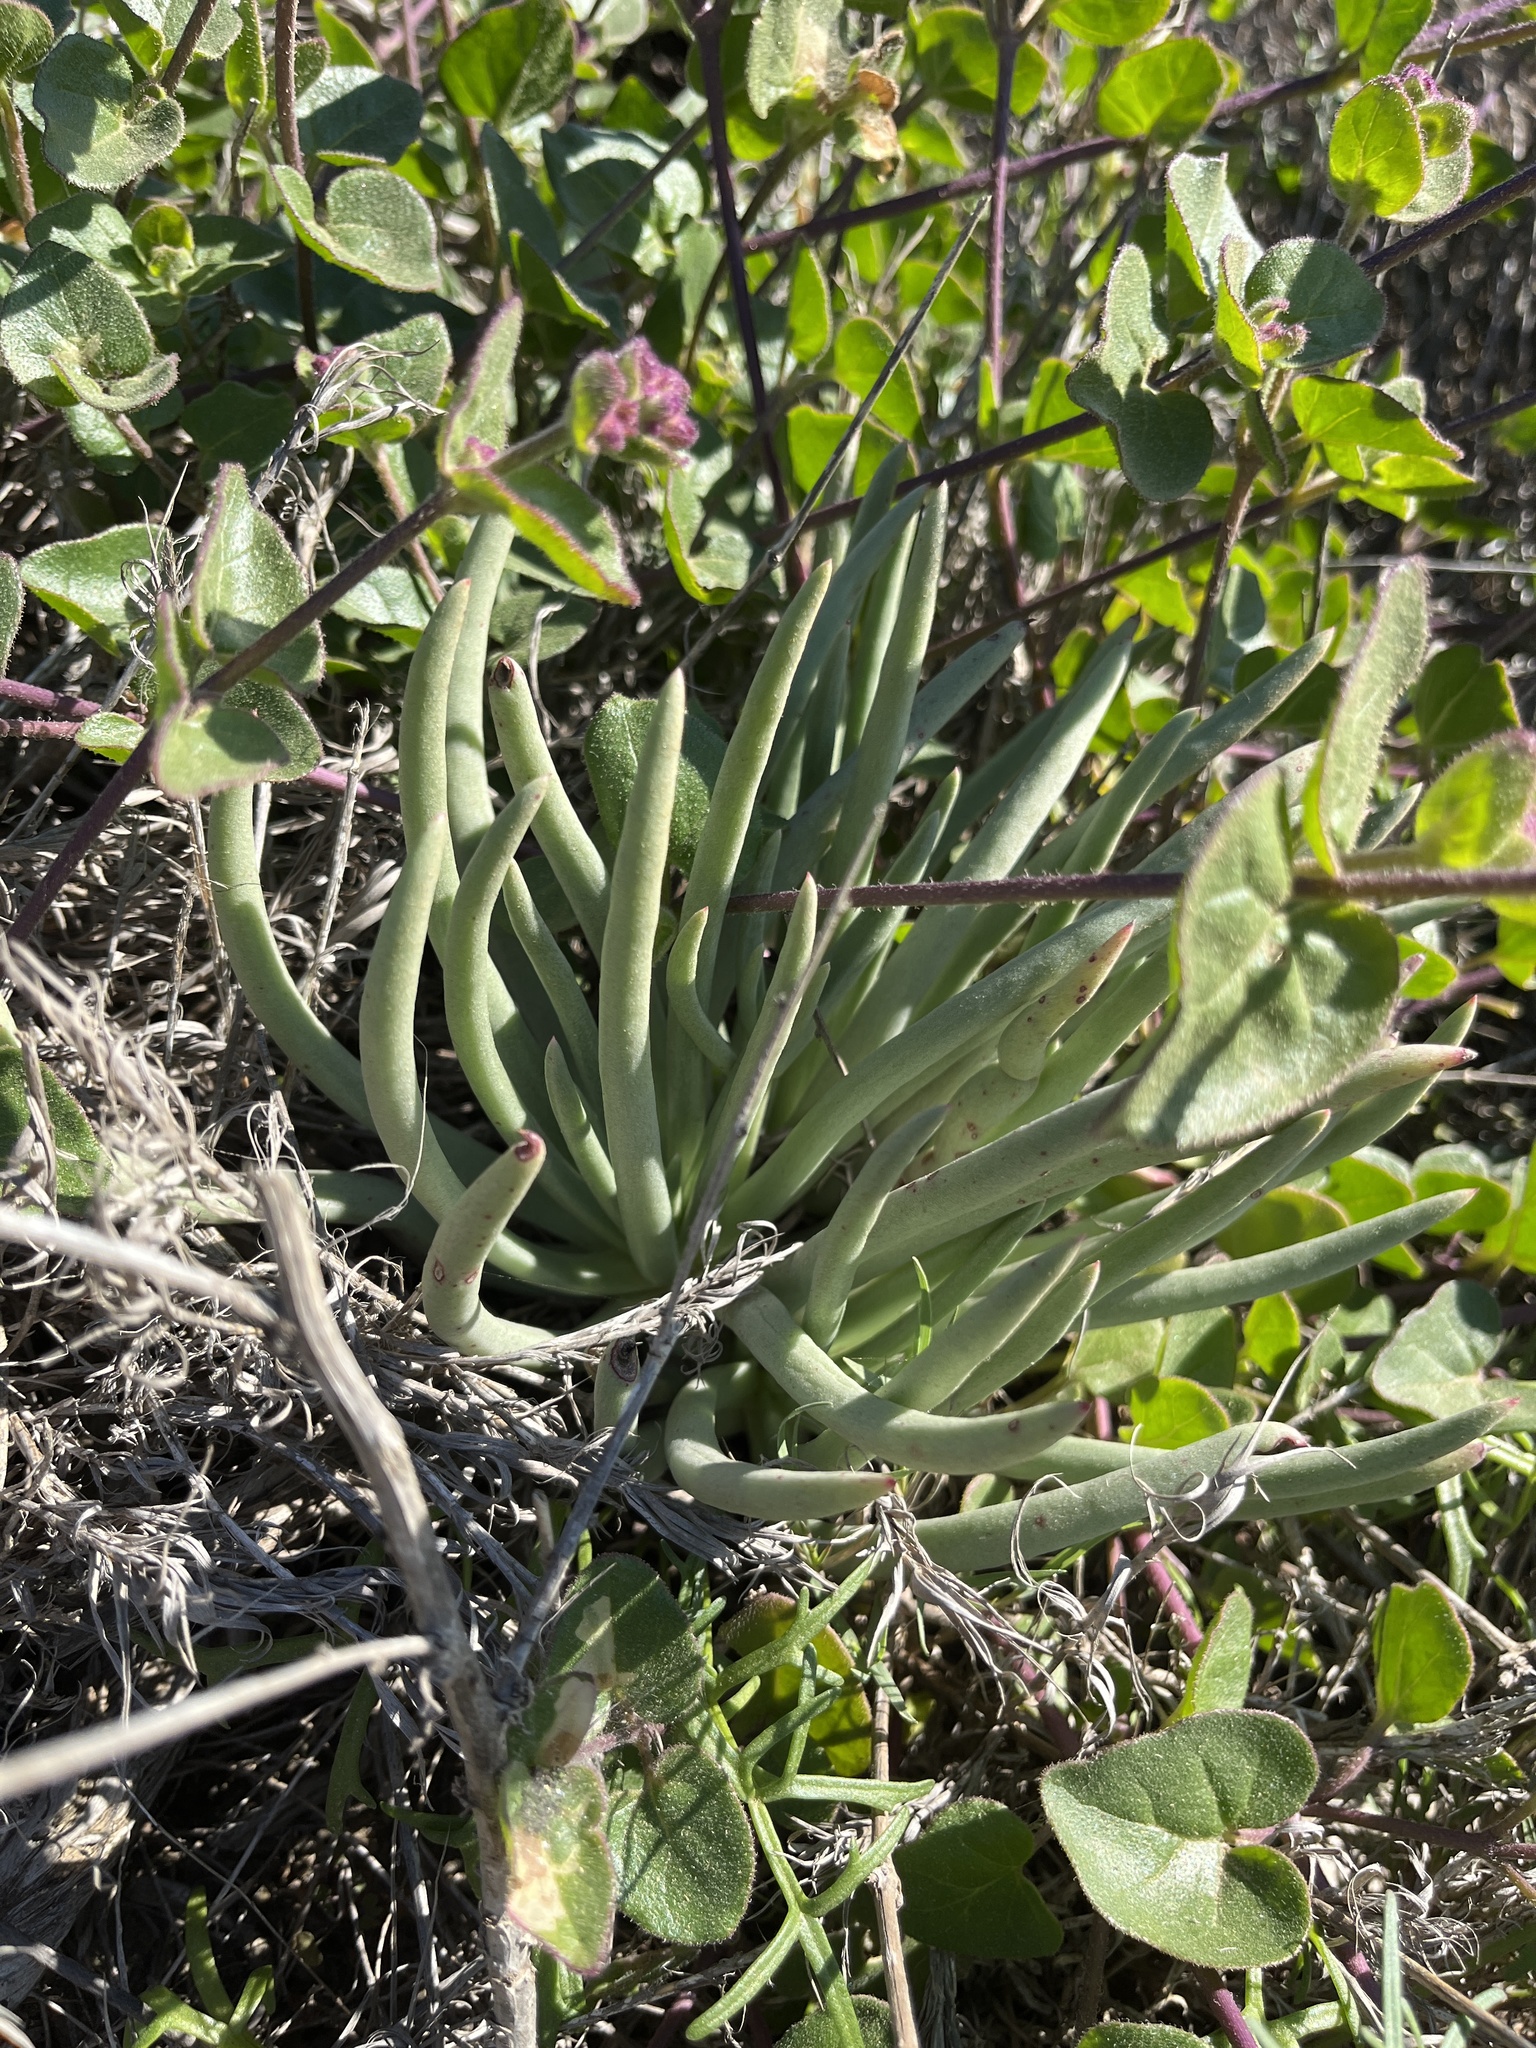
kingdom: Plantae
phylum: Tracheophyta
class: Magnoliopsida
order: Saxifragales
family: Crassulaceae
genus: Dudleya
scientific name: Dudleya edulis
